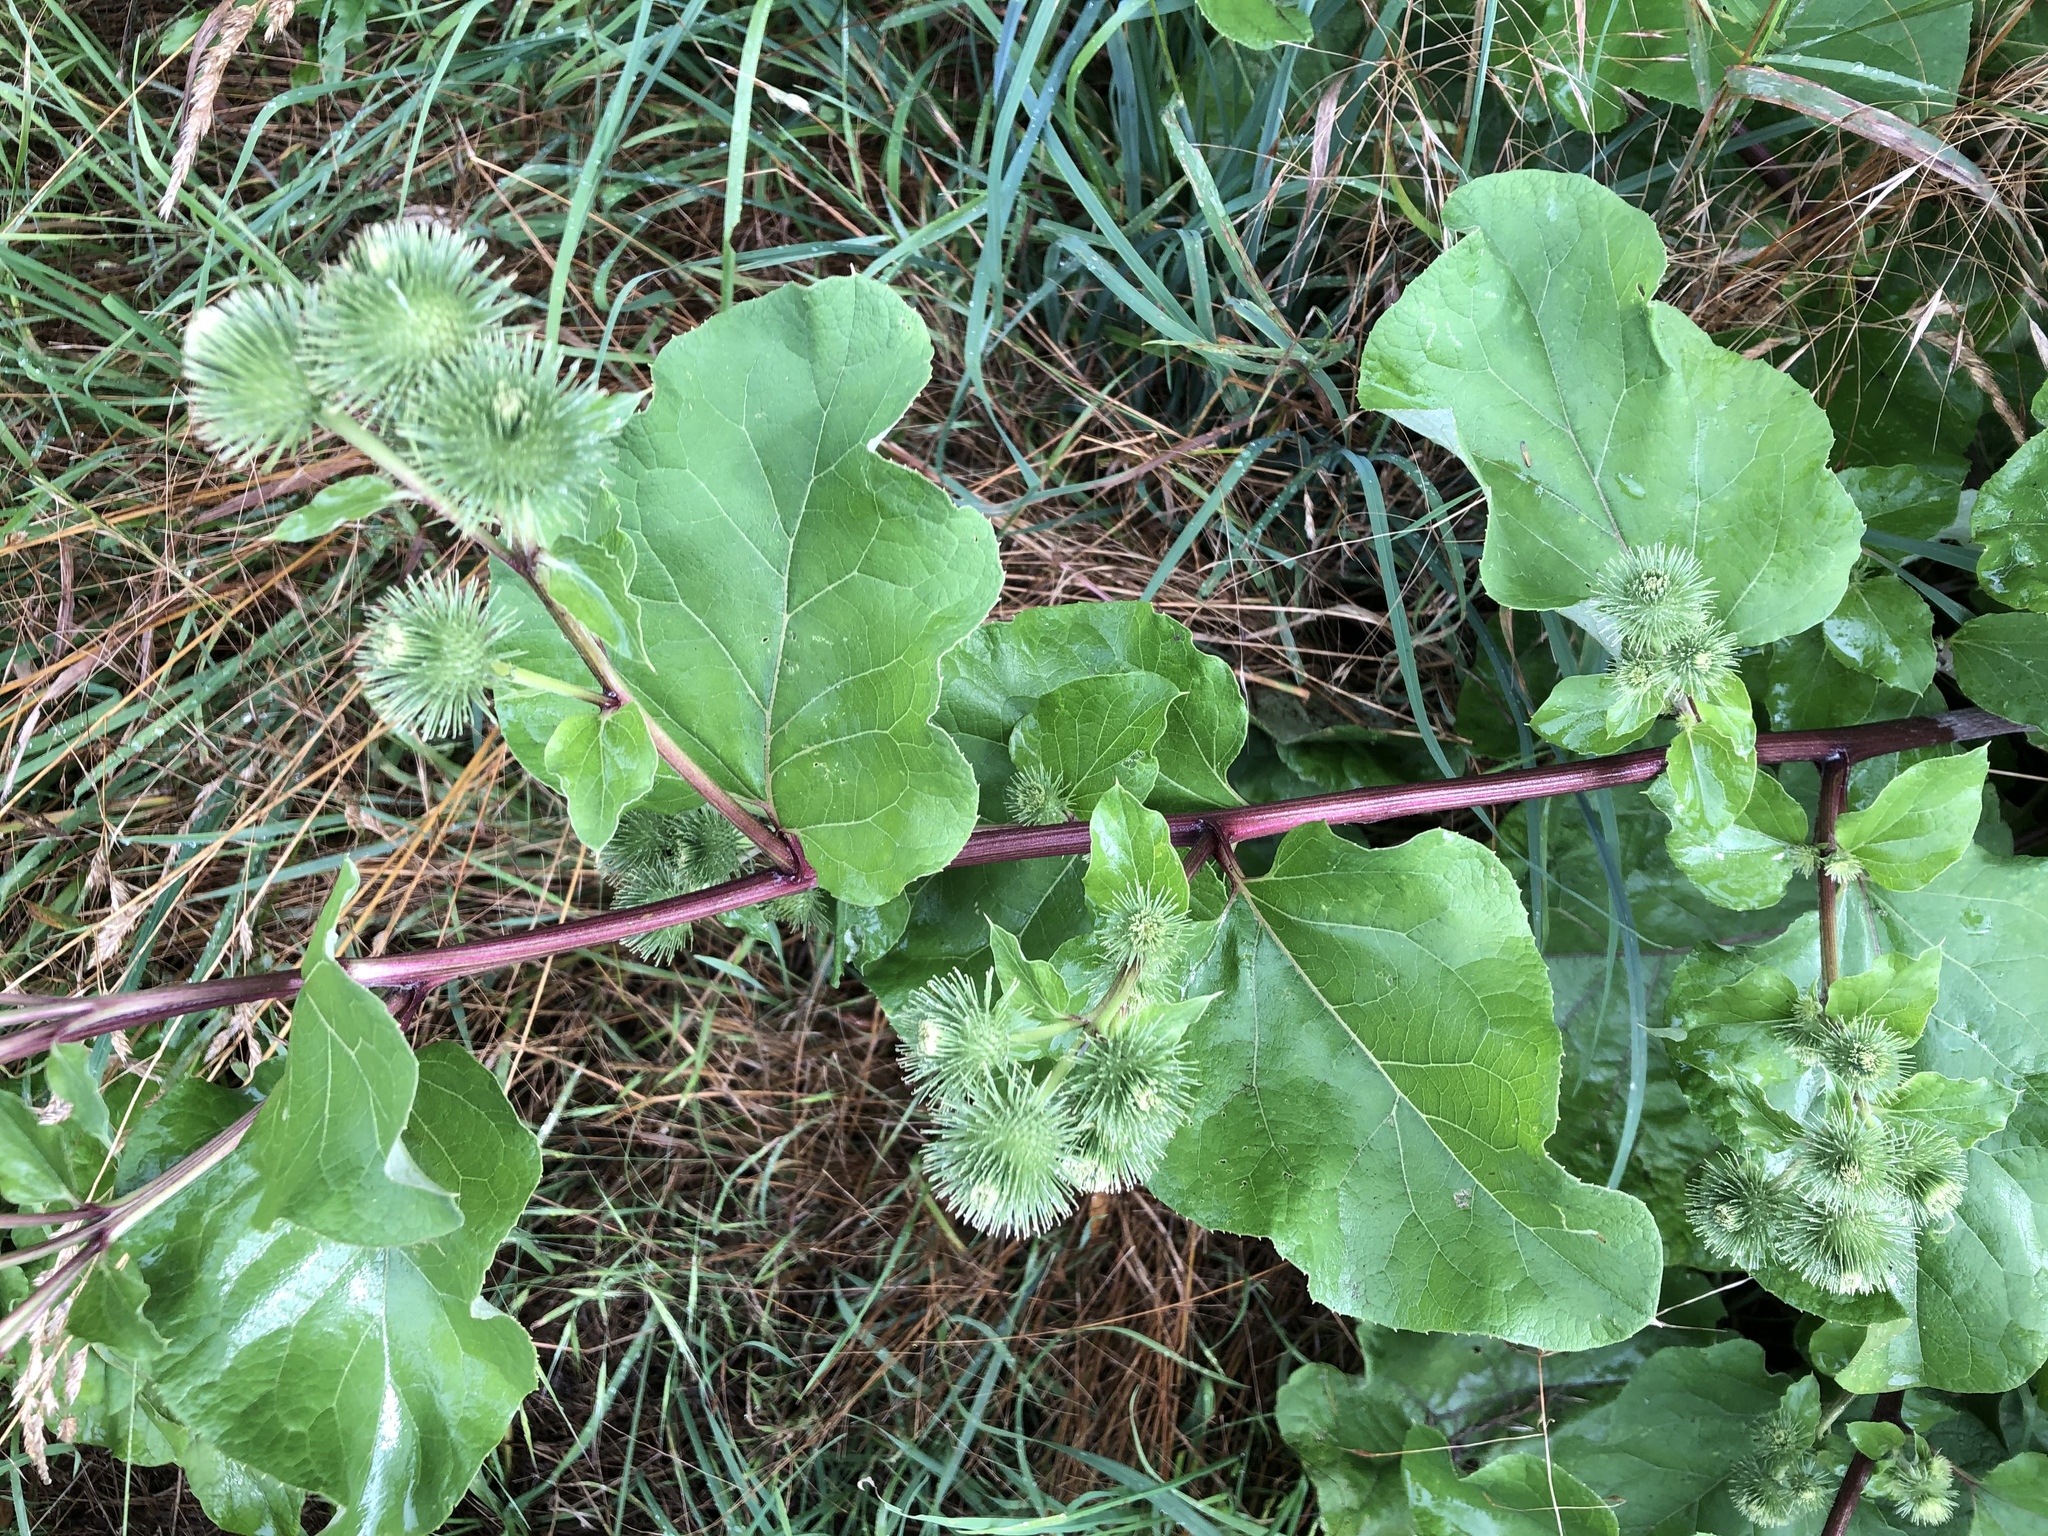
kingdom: Plantae
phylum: Tracheophyta
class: Magnoliopsida
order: Asterales
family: Asteraceae
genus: Arctium
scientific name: Arctium lappa
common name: Greater burdock
